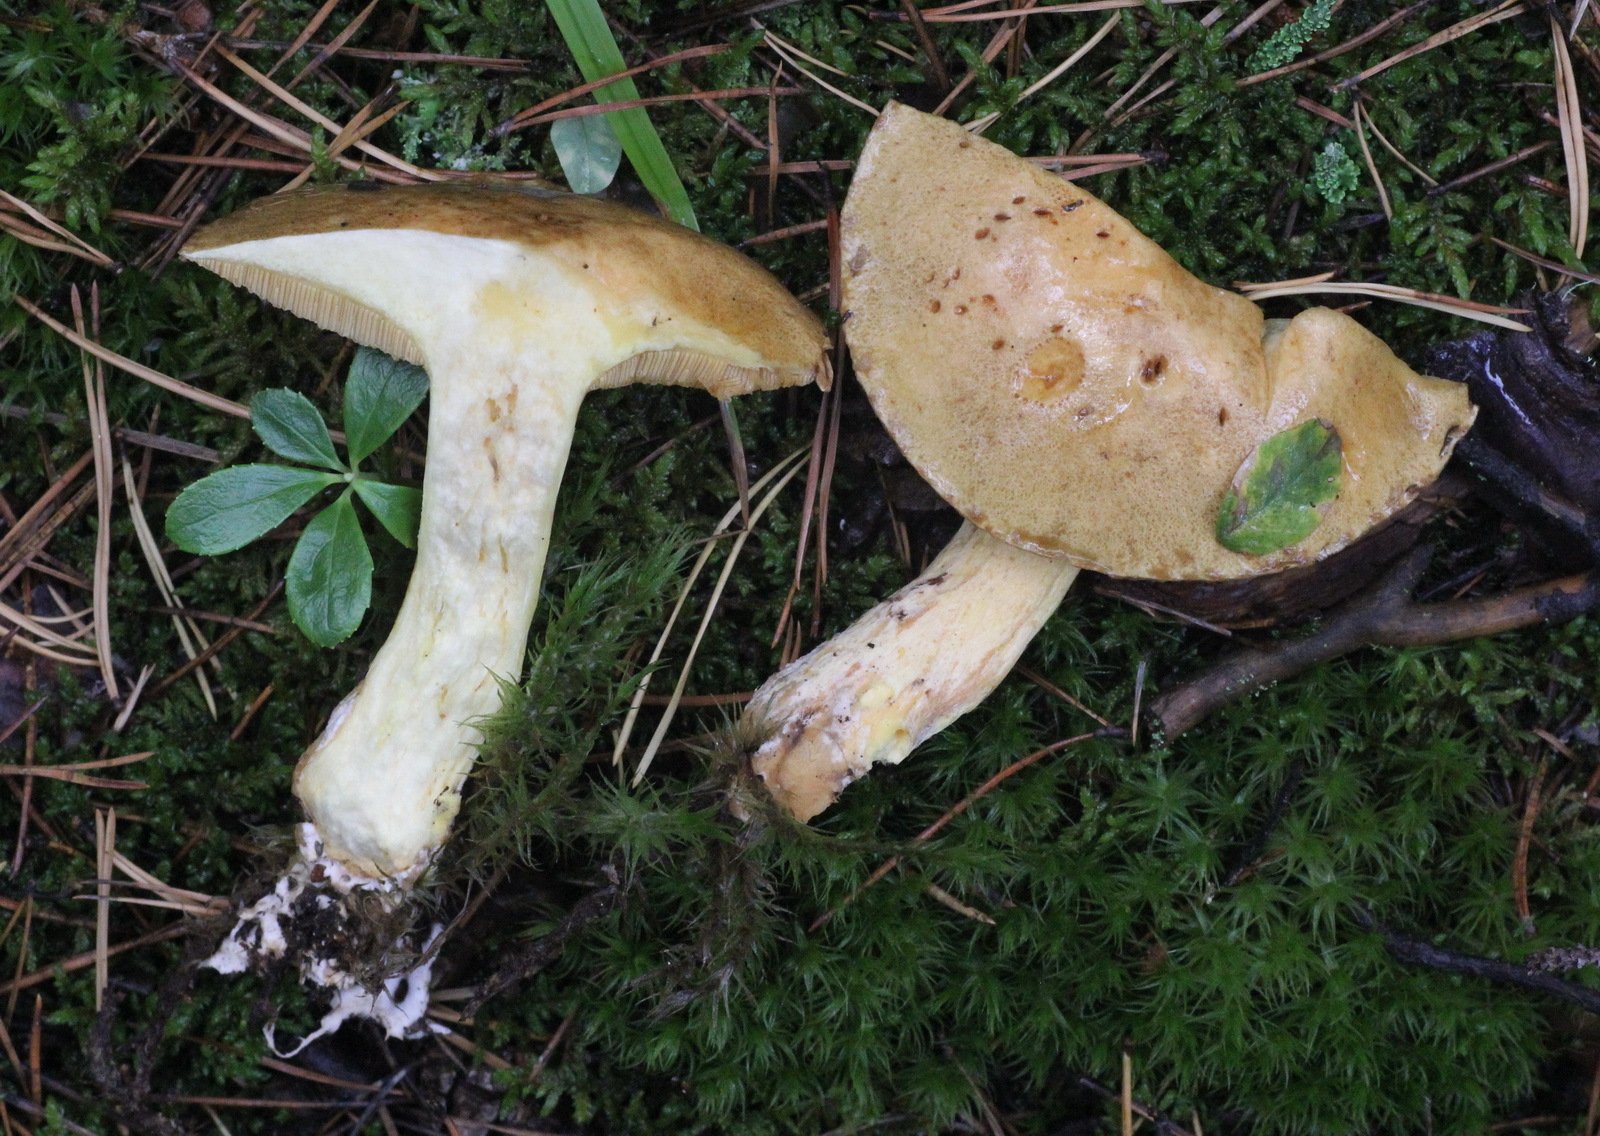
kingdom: Fungi
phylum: Basidiomycota
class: Agaricomycetes
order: Boletales
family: Suillaceae
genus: Suillus
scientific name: Suillus variegatus
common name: Velvet bolete
